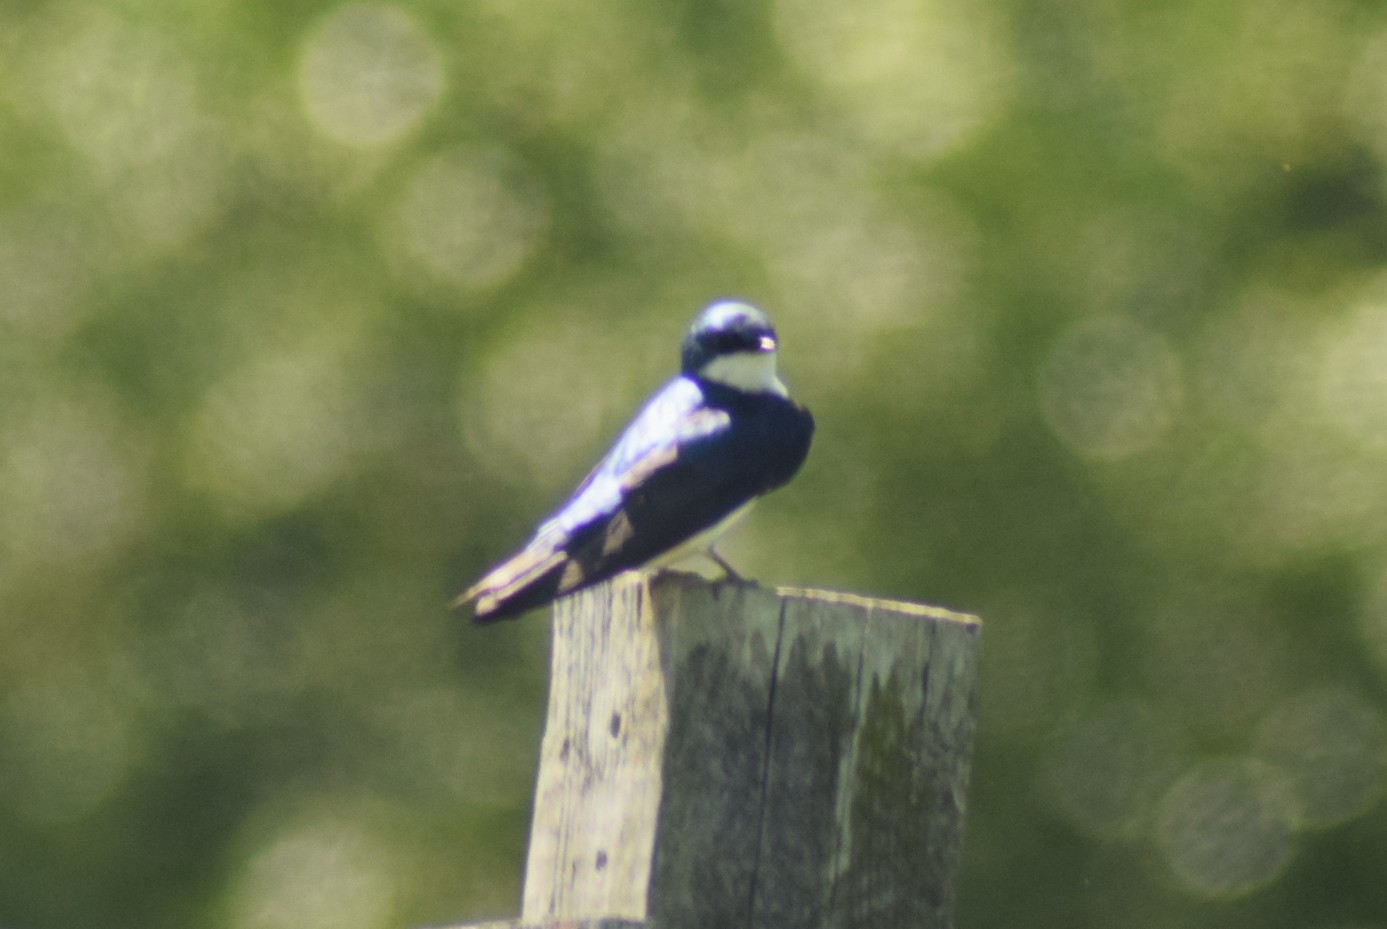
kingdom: Animalia
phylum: Chordata
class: Aves
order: Passeriformes
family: Hirundinidae
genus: Tachycineta
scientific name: Tachycineta bicolor
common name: Tree swallow
